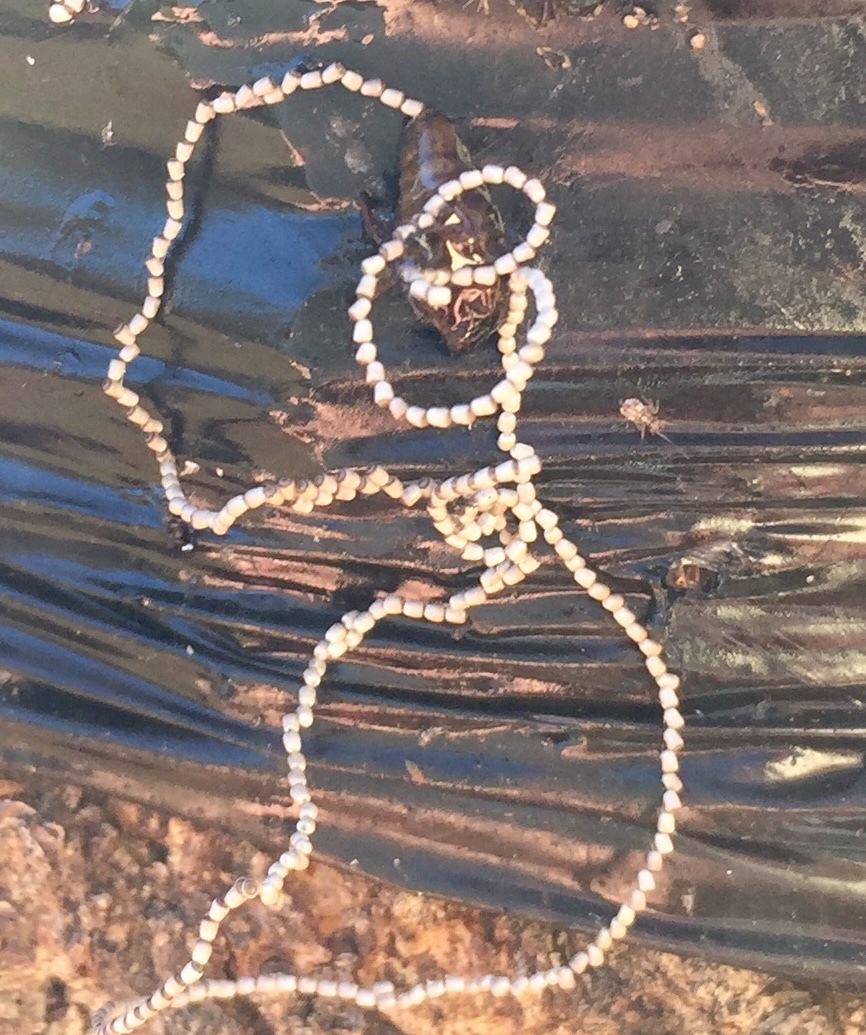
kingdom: Animalia
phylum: Arthropoda
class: Insecta
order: Lepidoptera
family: Geometridae
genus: Alsophila
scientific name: Alsophila pometaria
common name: Fall cankerworm
